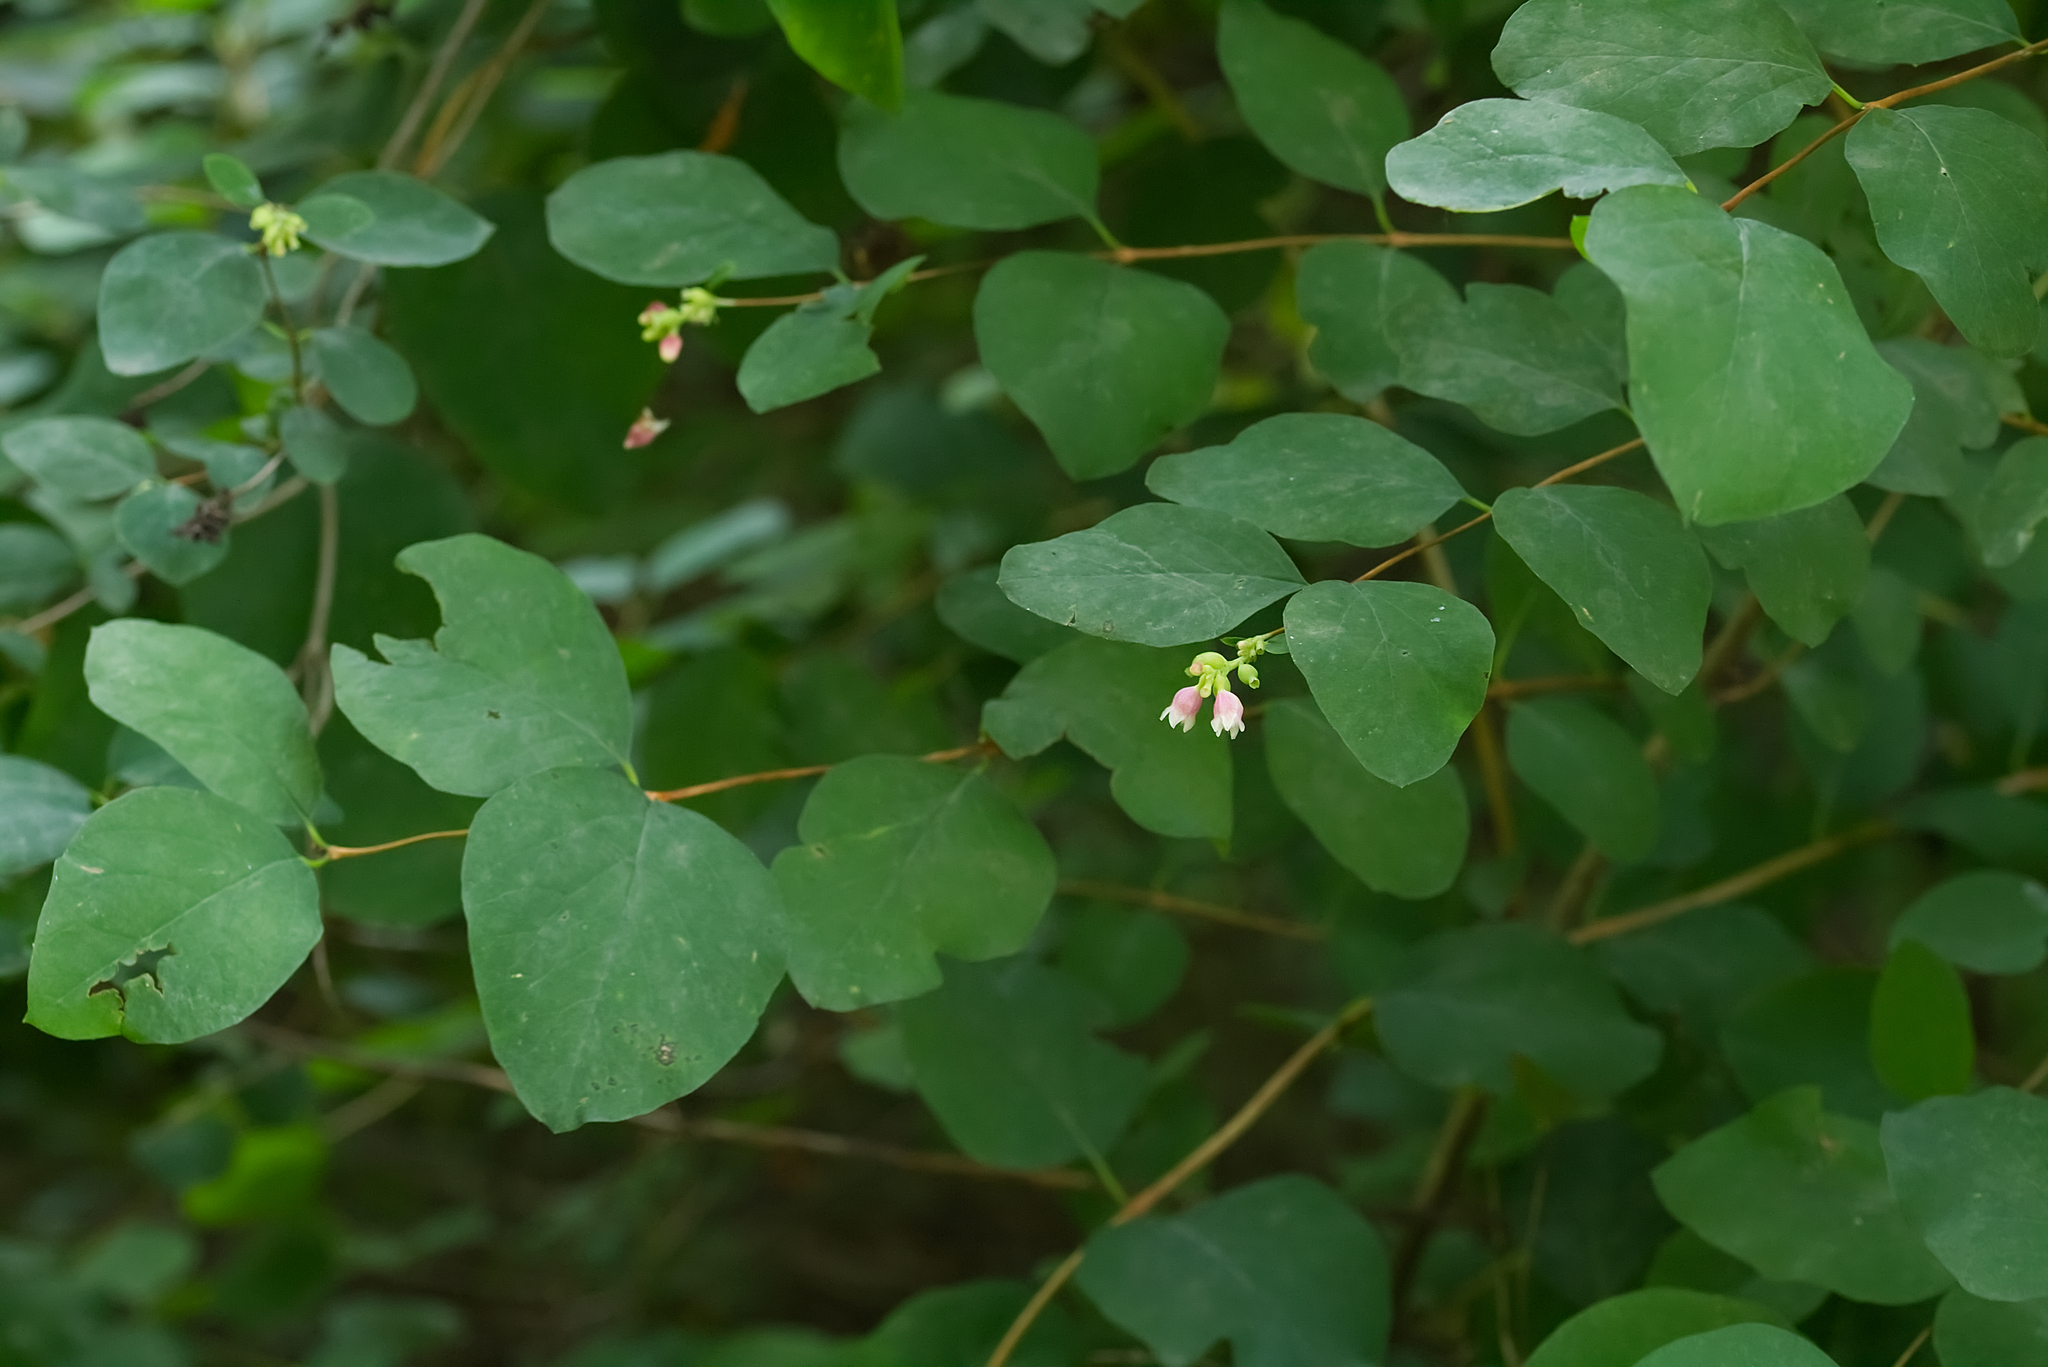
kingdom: Plantae
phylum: Tracheophyta
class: Magnoliopsida
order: Dipsacales
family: Caprifoliaceae
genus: Symphoricarpos
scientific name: Symphoricarpos albus
